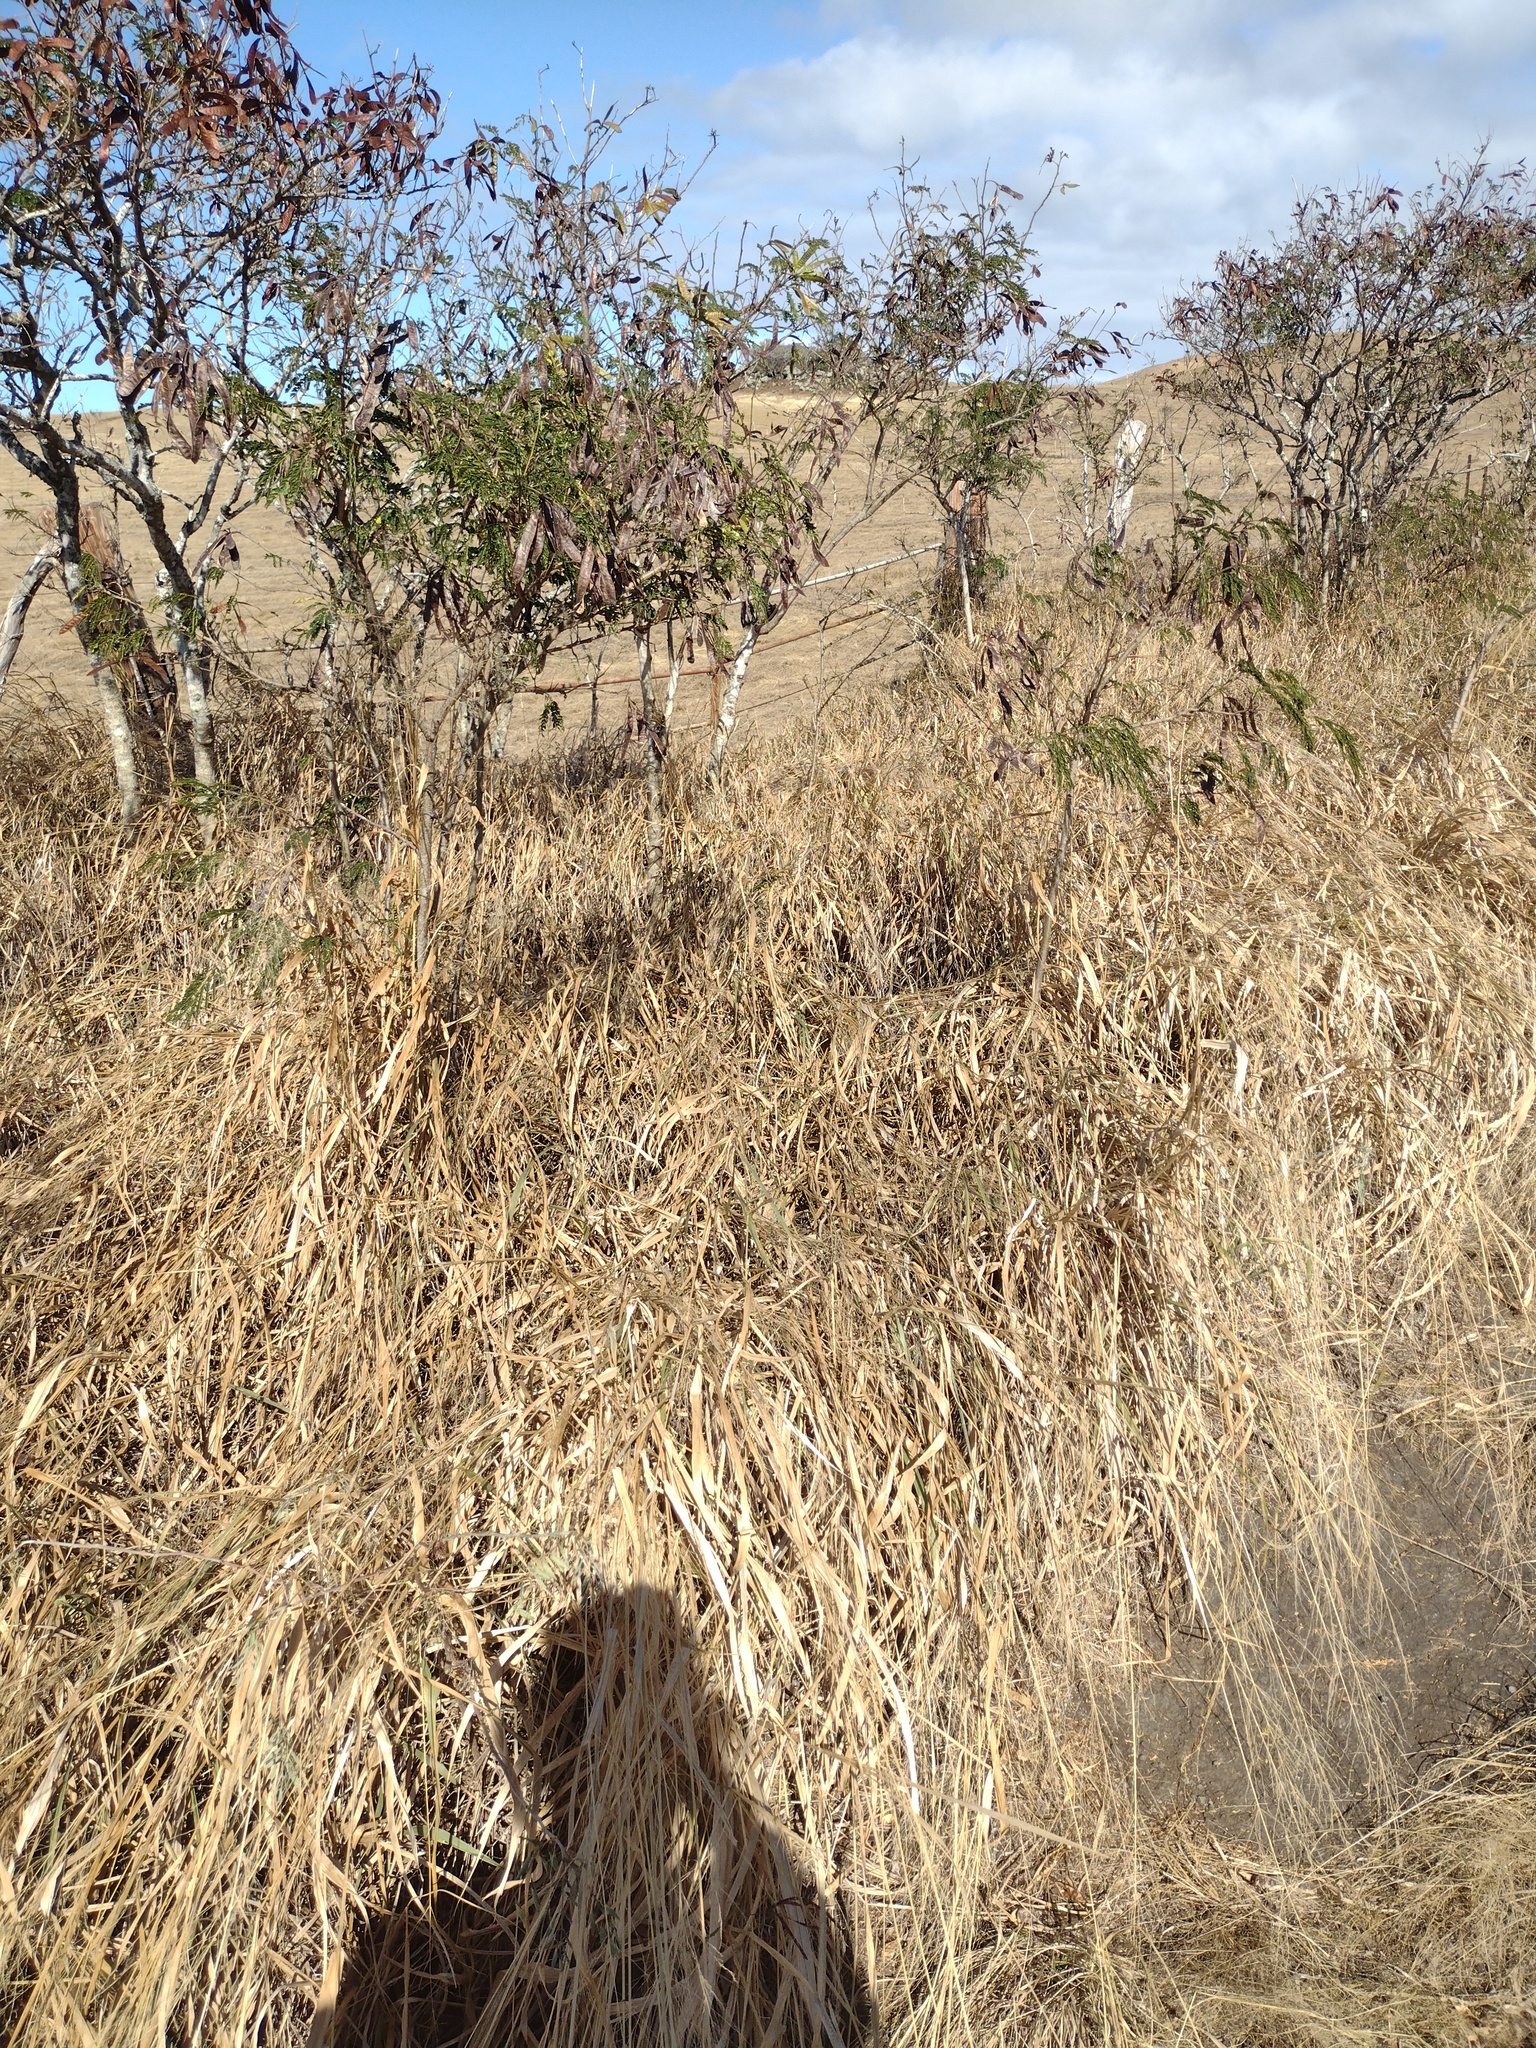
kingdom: Plantae
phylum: Tracheophyta
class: Magnoliopsida
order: Fabales
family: Fabaceae
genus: Leucaena
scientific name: Leucaena leucocephala
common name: White leadtree
